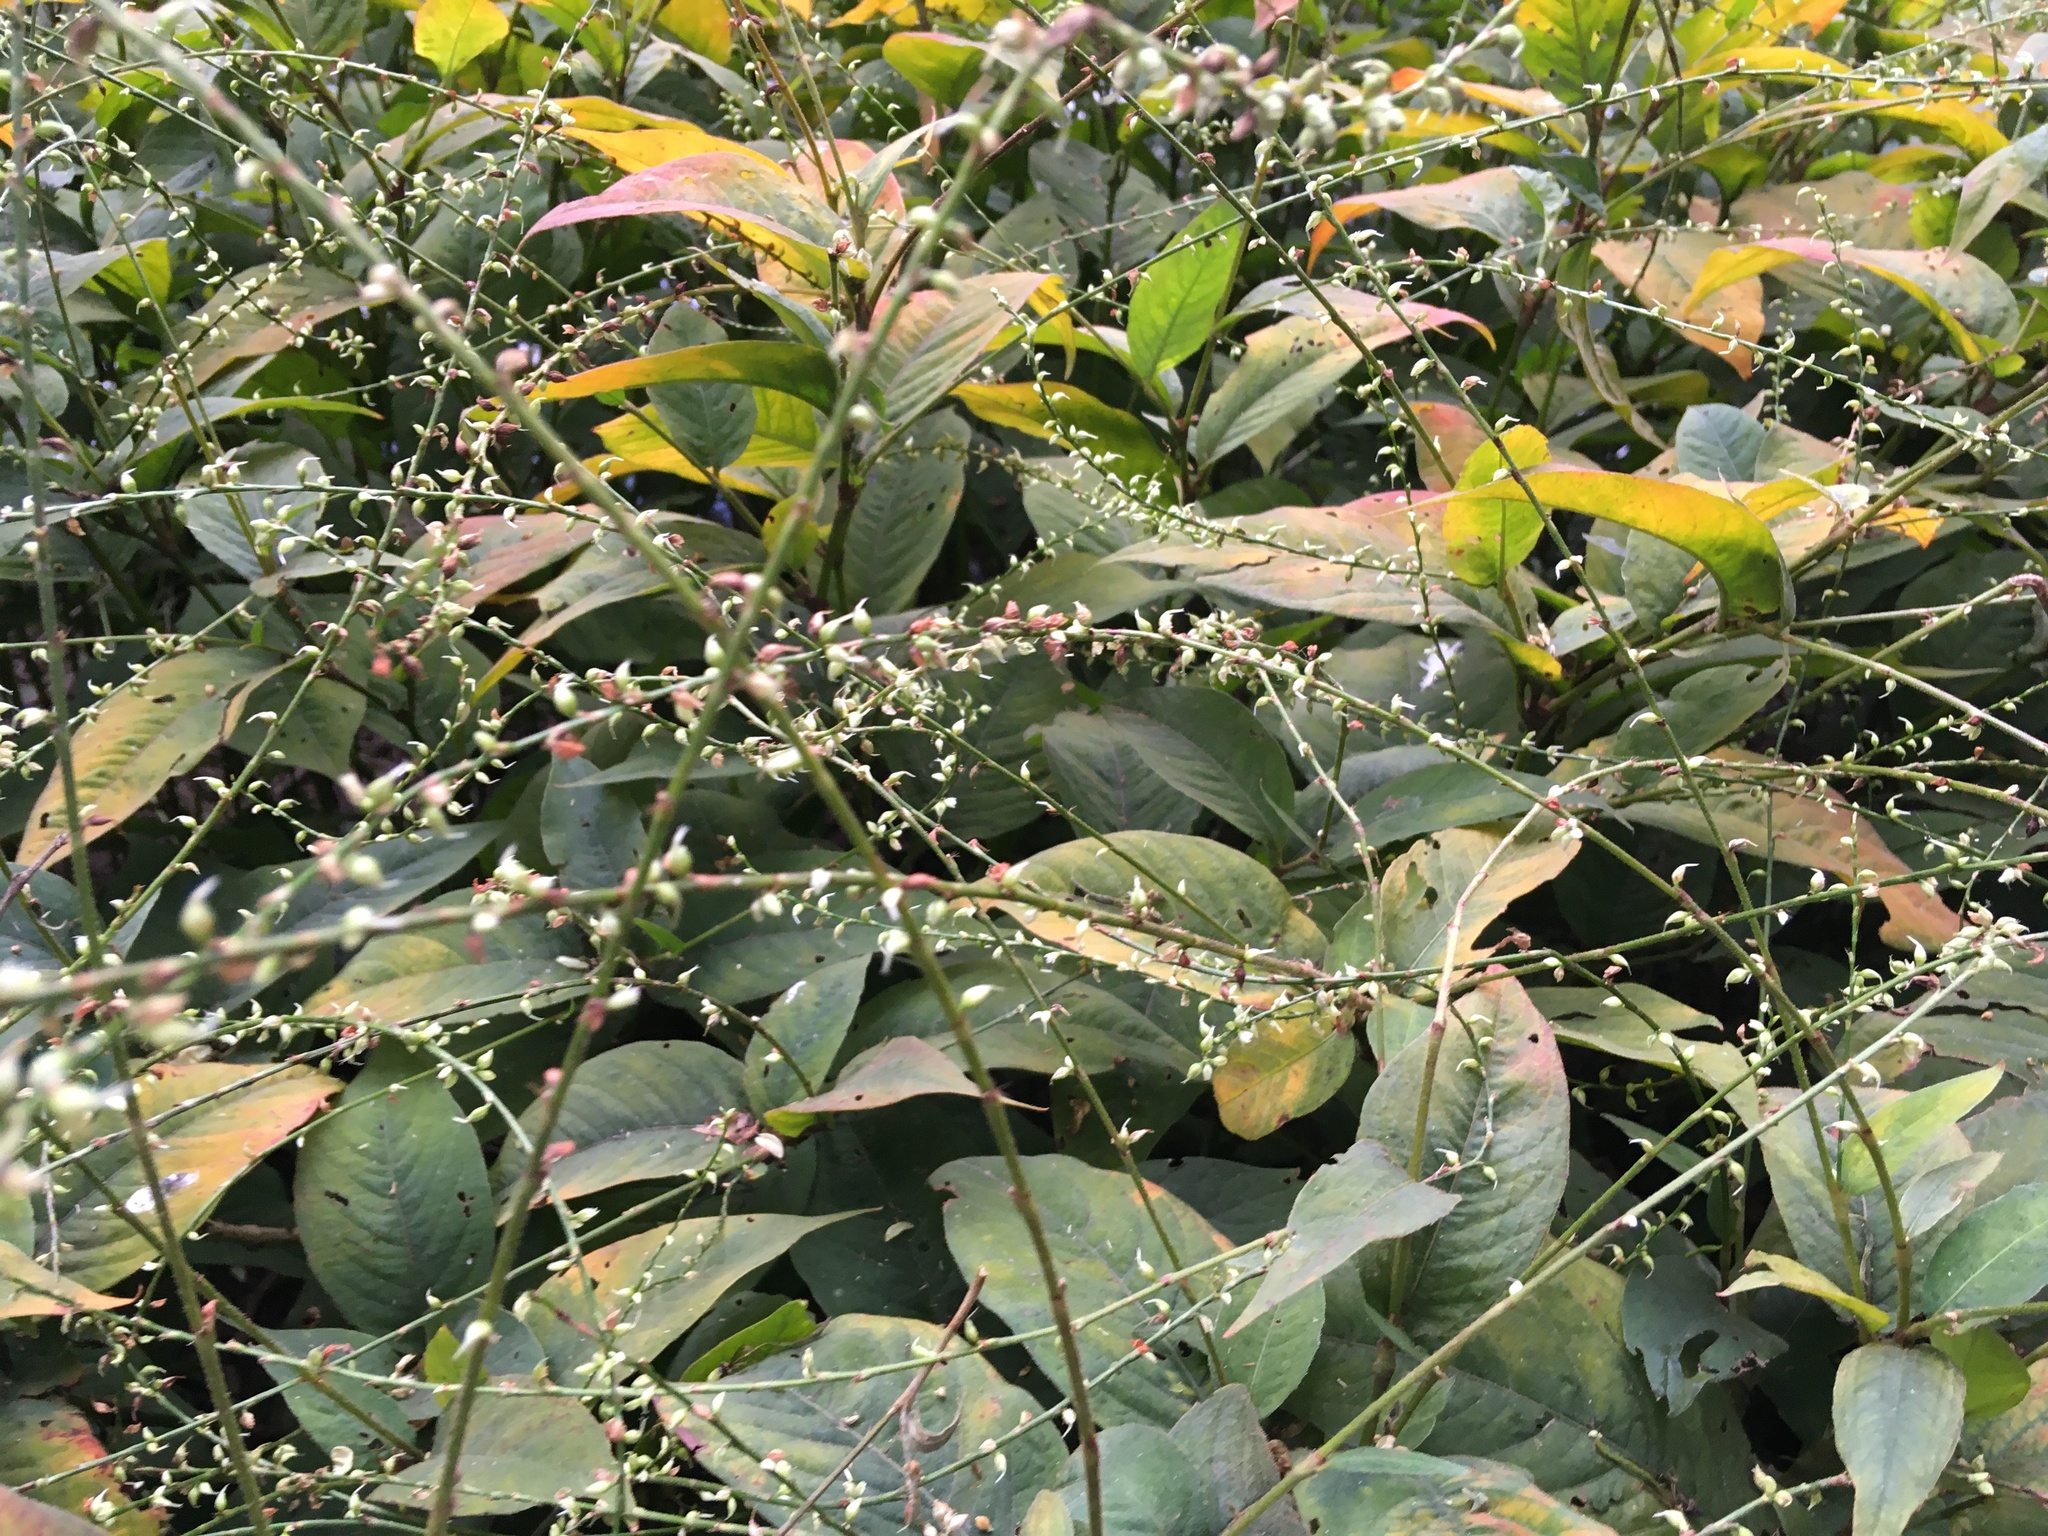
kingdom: Plantae
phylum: Tracheophyta
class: Magnoliopsida
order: Caryophyllales
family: Polygonaceae
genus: Persicaria
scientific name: Persicaria virginiana
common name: Jumpseed
